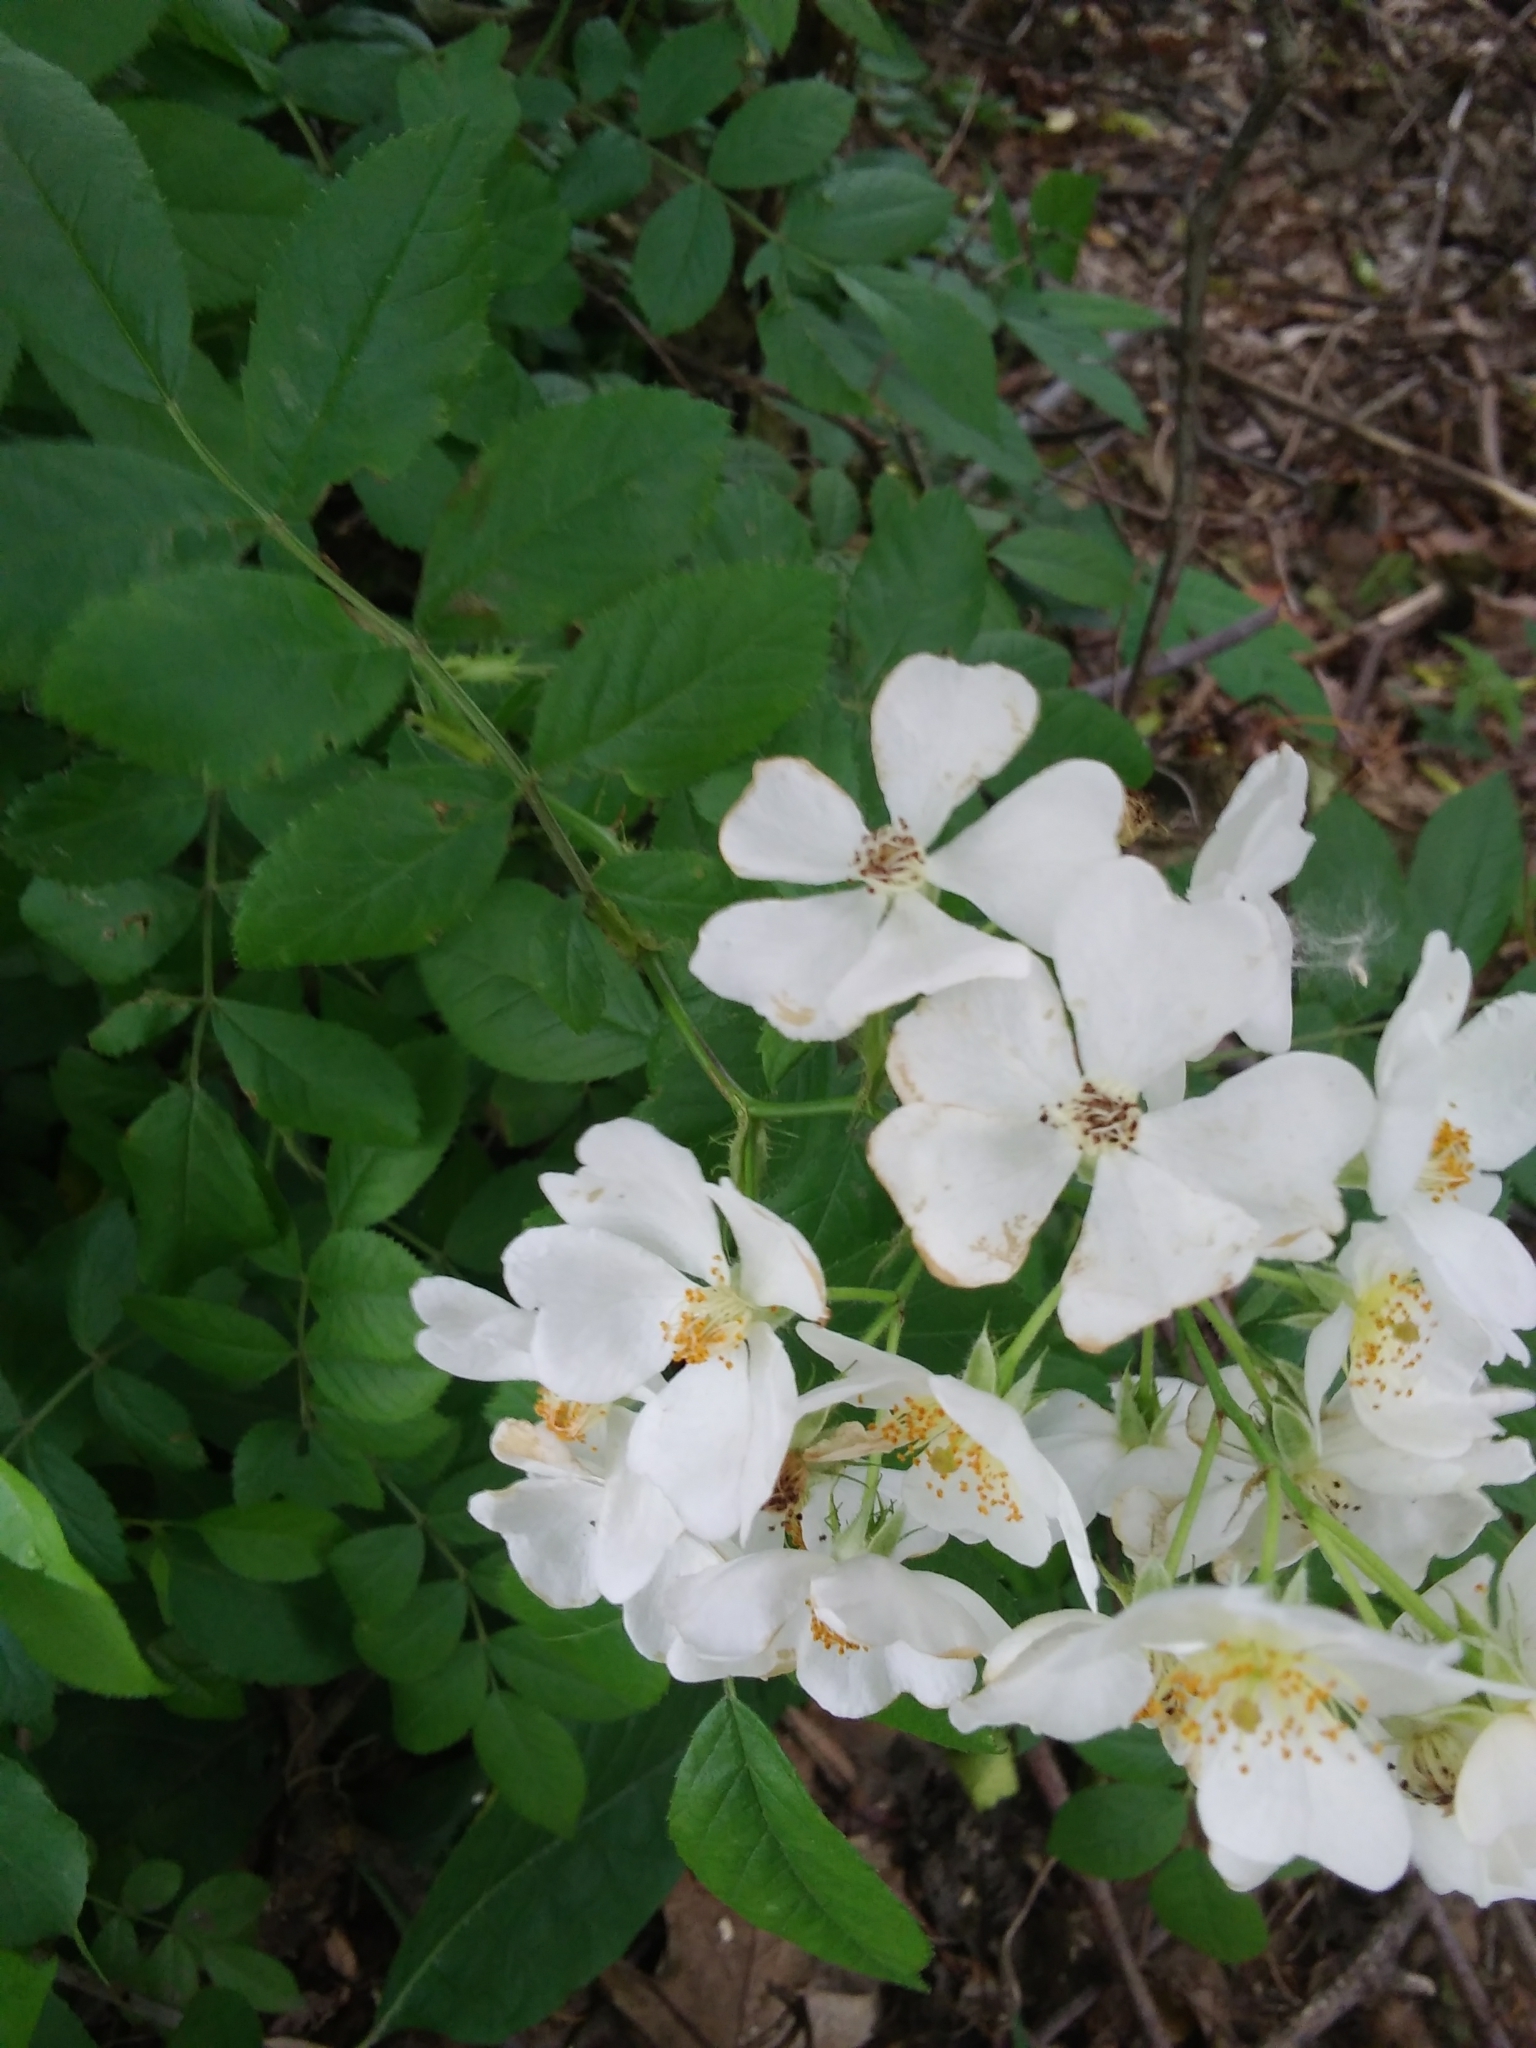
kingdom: Plantae
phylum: Tracheophyta
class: Magnoliopsida
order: Rosales
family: Rosaceae
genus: Rosa
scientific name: Rosa multiflora
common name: Multiflora rose
